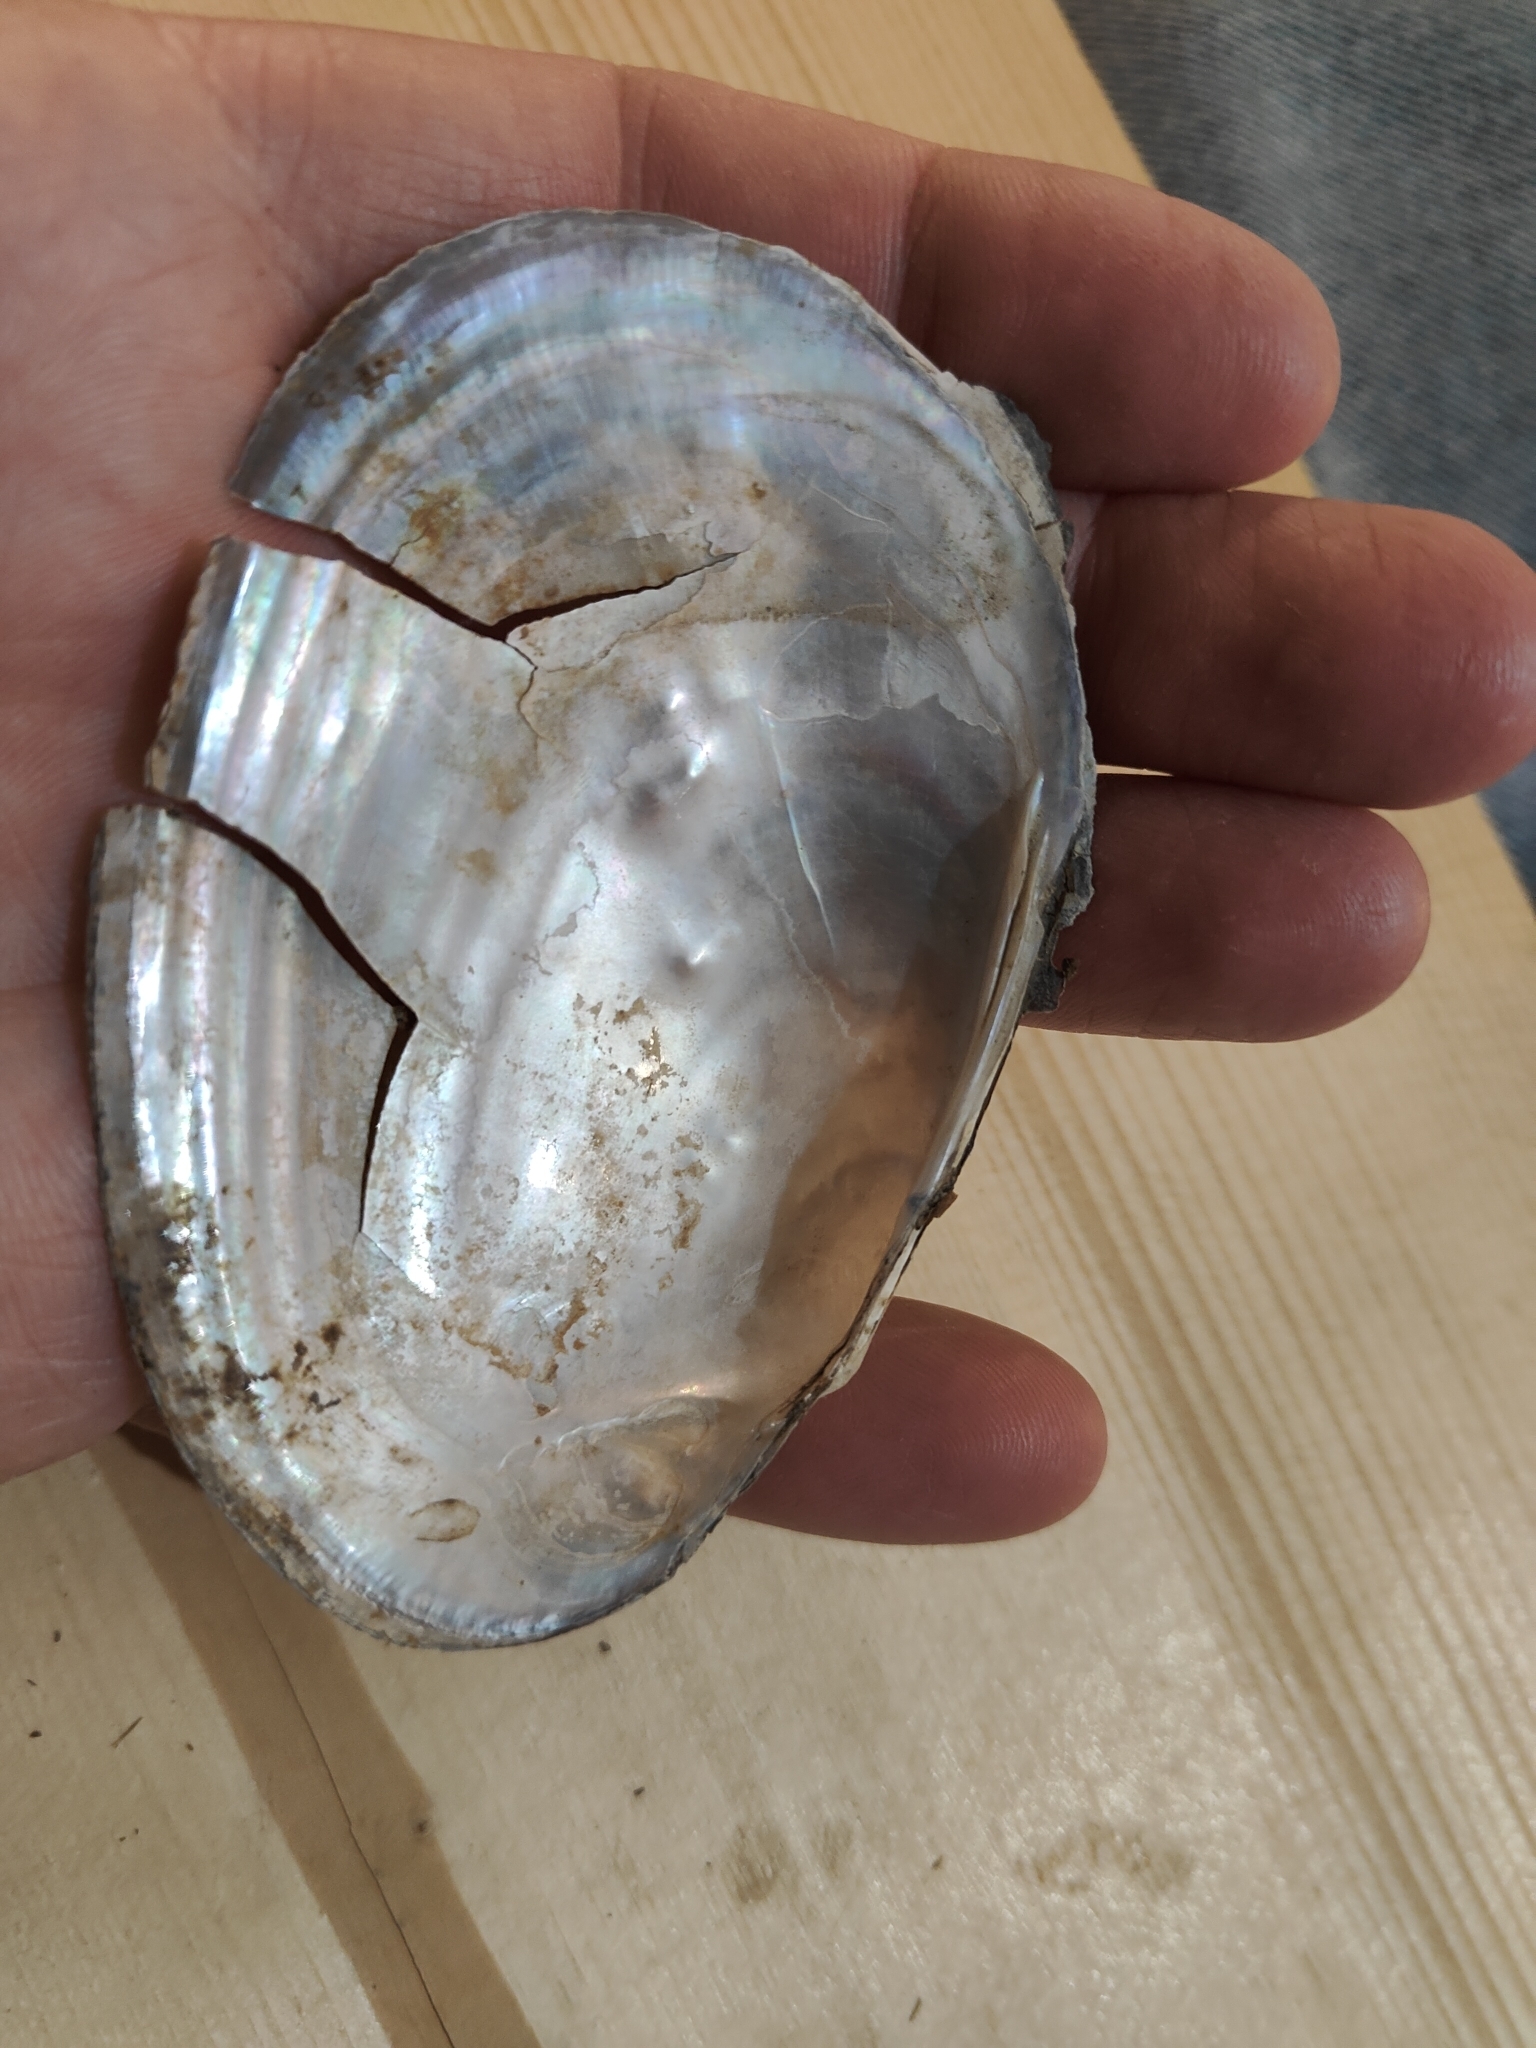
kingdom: Animalia
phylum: Mollusca
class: Bivalvia
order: Unionida
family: Unionidae
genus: Potamilus
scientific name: Potamilus fragilis
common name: Fragile papershell
